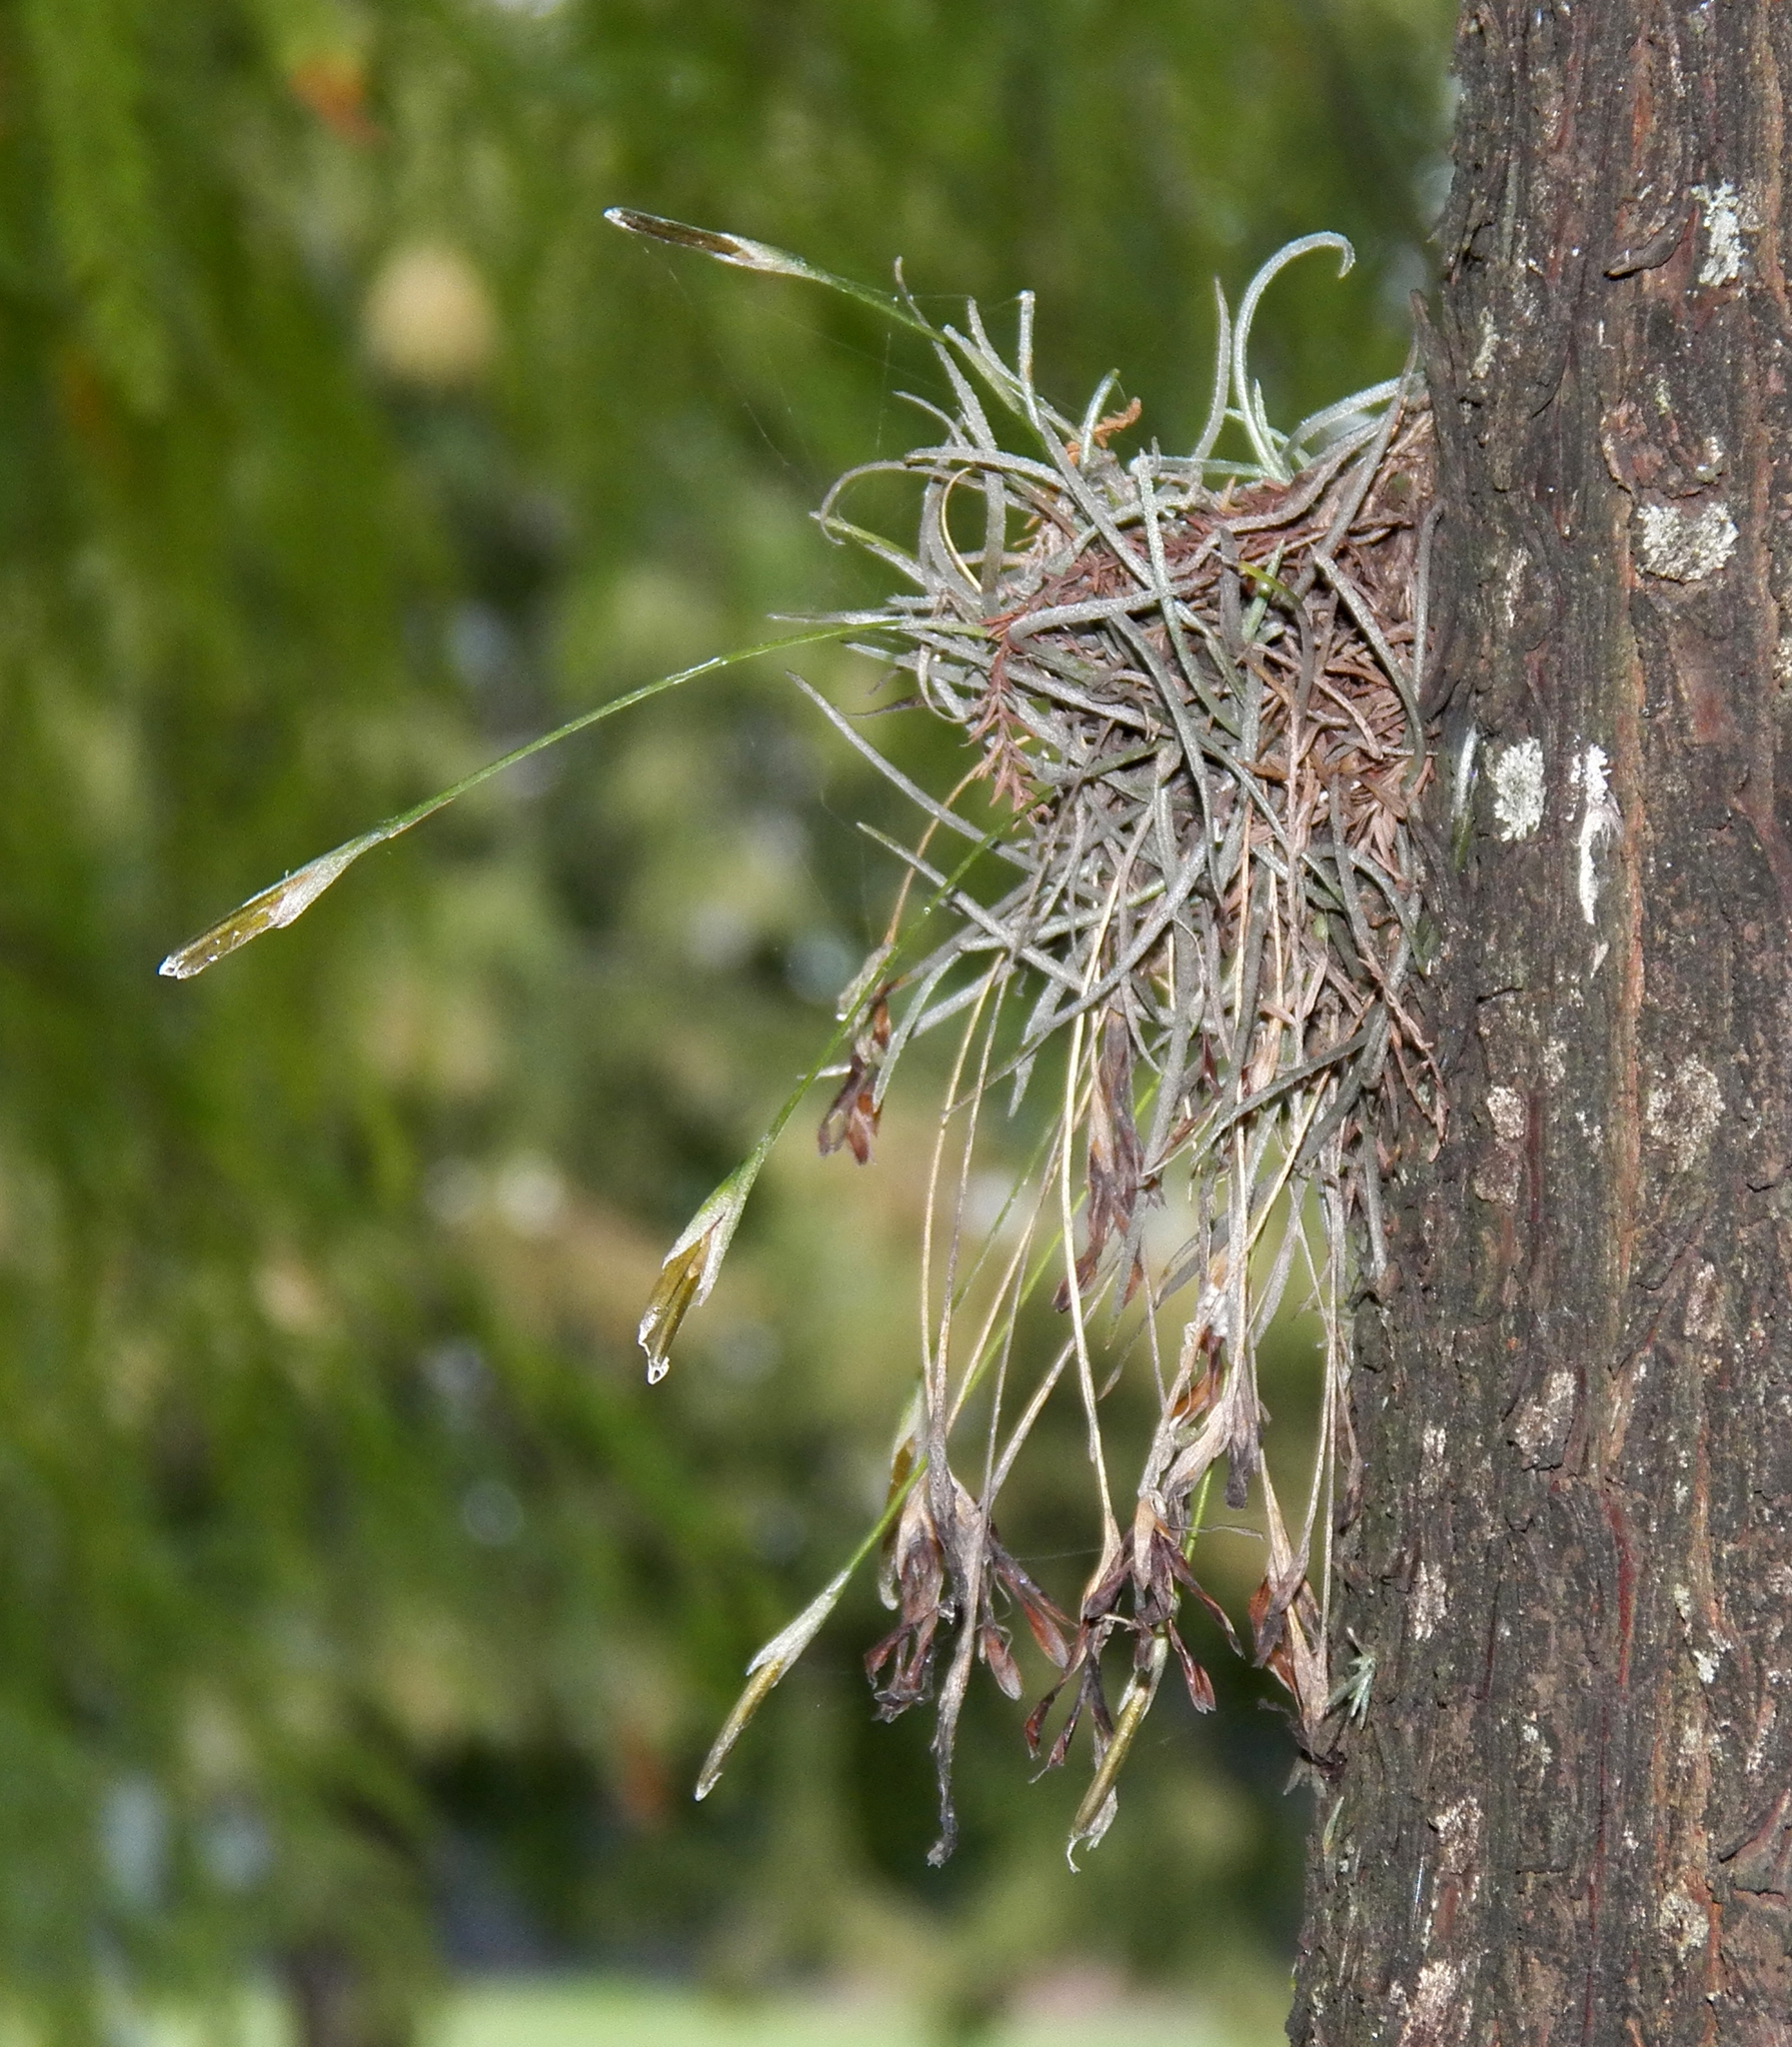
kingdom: Plantae
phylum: Tracheophyta
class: Liliopsida
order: Poales
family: Bromeliaceae
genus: Tillandsia
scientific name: Tillandsia recurvata
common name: Small ballmoss
